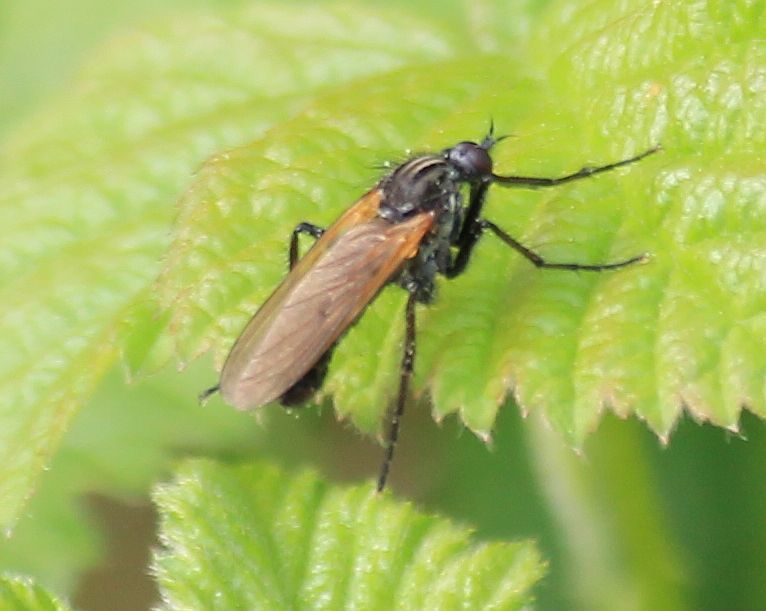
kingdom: Animalia
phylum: Arthropoda
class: Insecta
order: Diptera
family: Empididae
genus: Empis
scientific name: Empis tessellata
